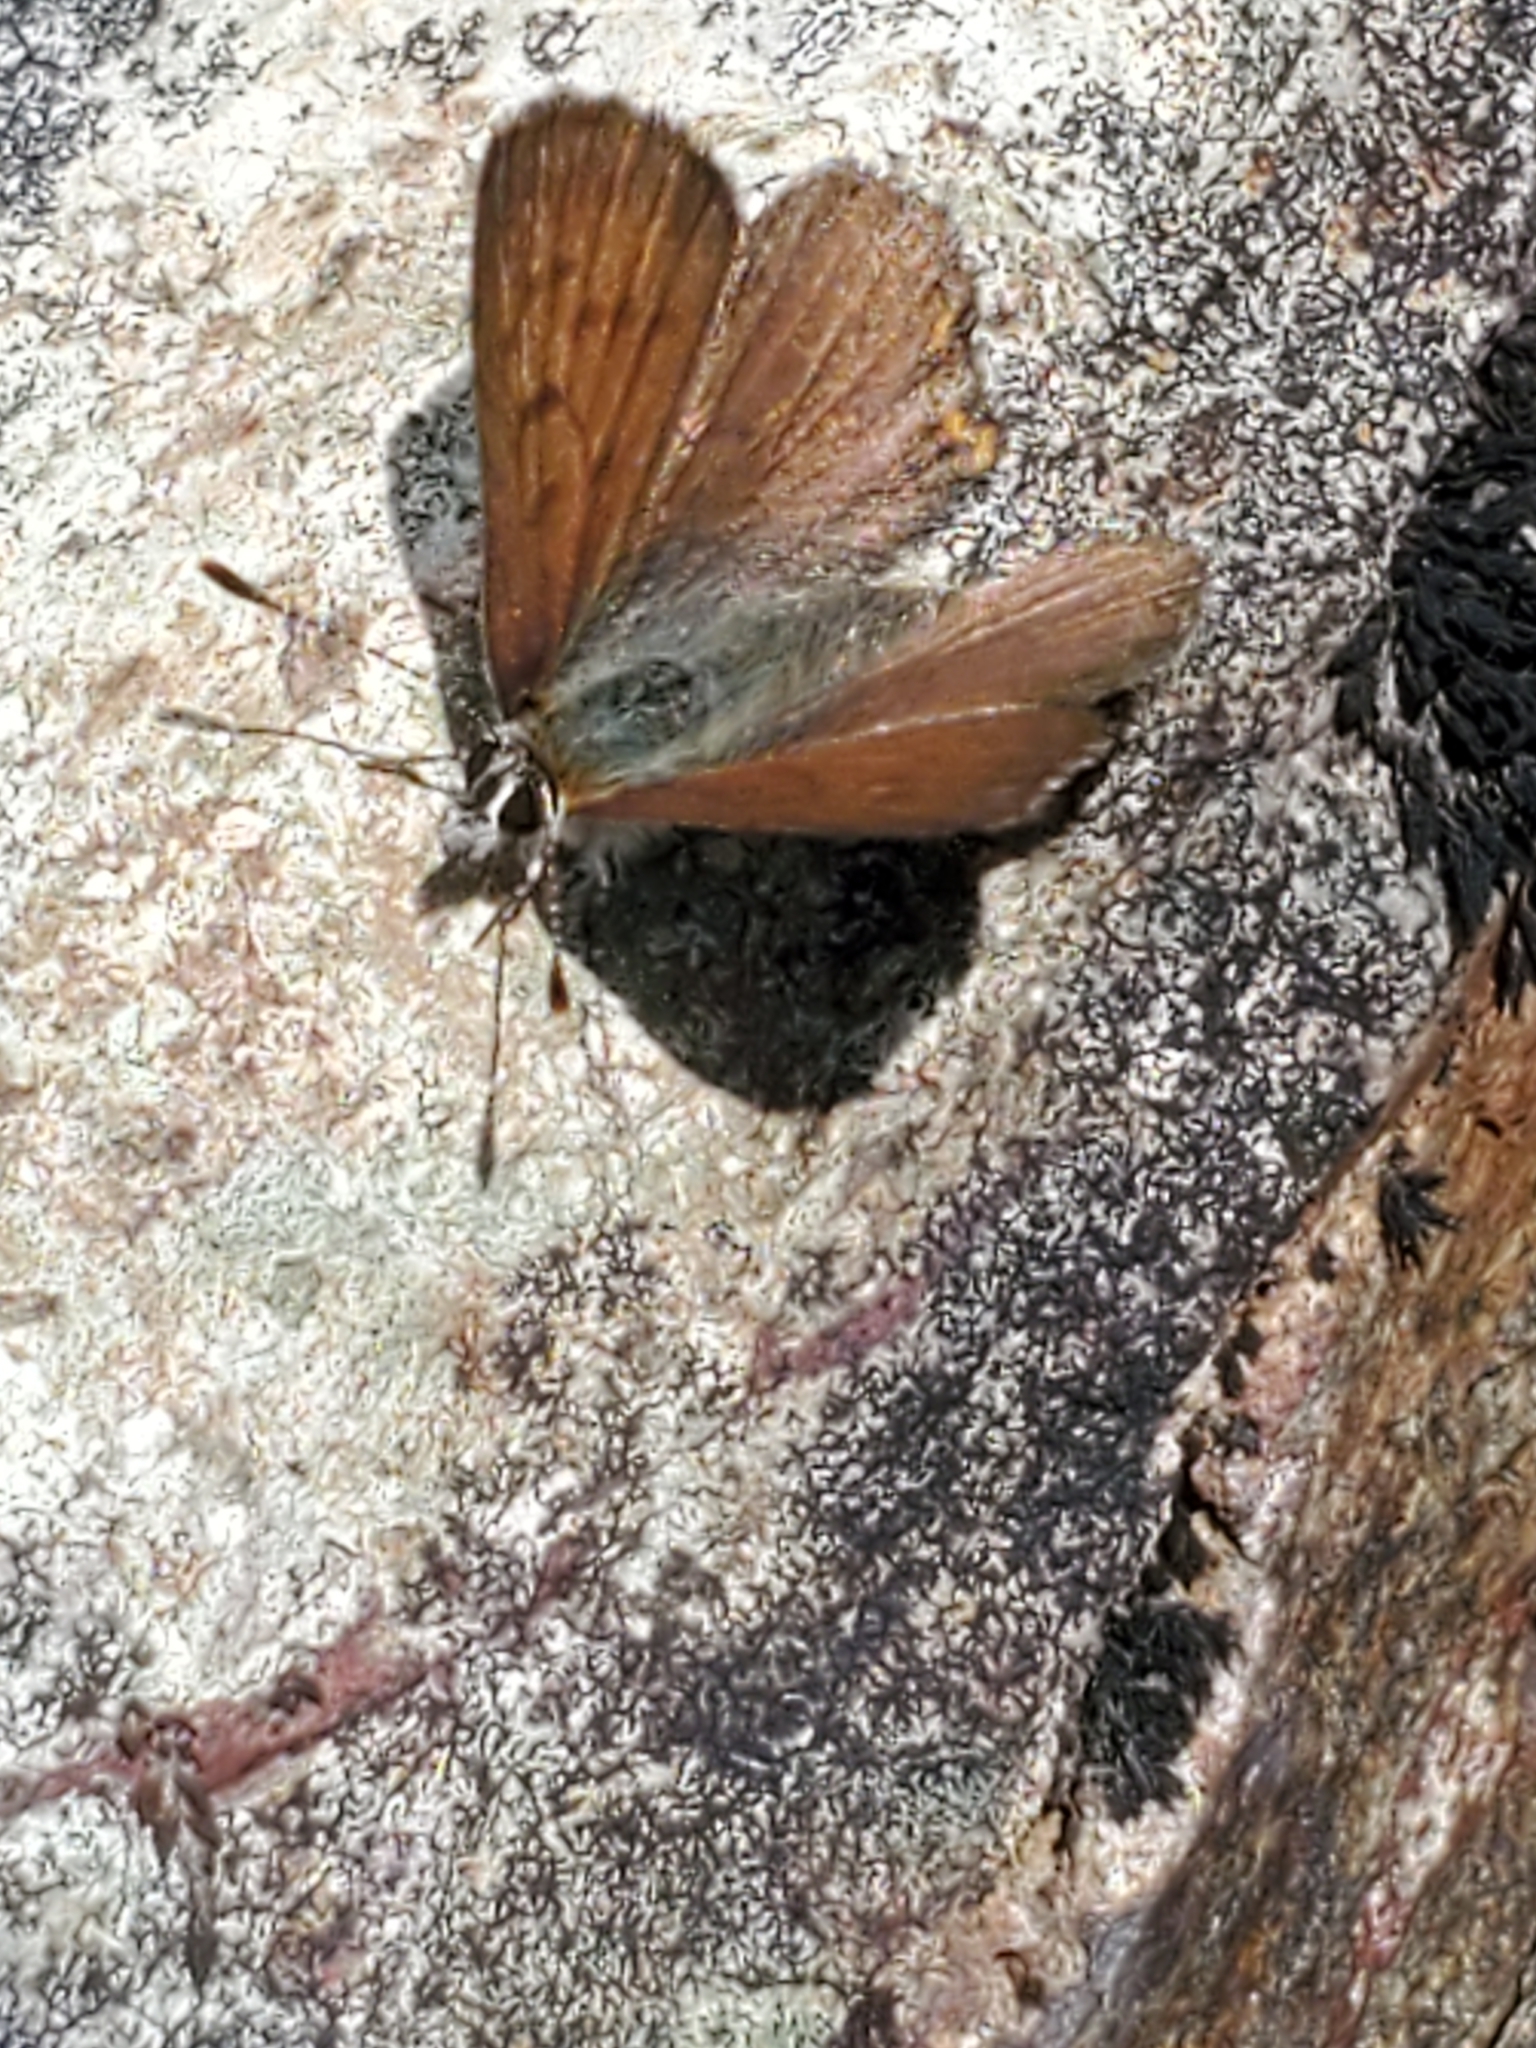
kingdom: Animalia
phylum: Arthropoda
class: Insecta
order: Lepidoptera
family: Lycaenidae
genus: Tharsalea
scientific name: Tharsalea mariposa
